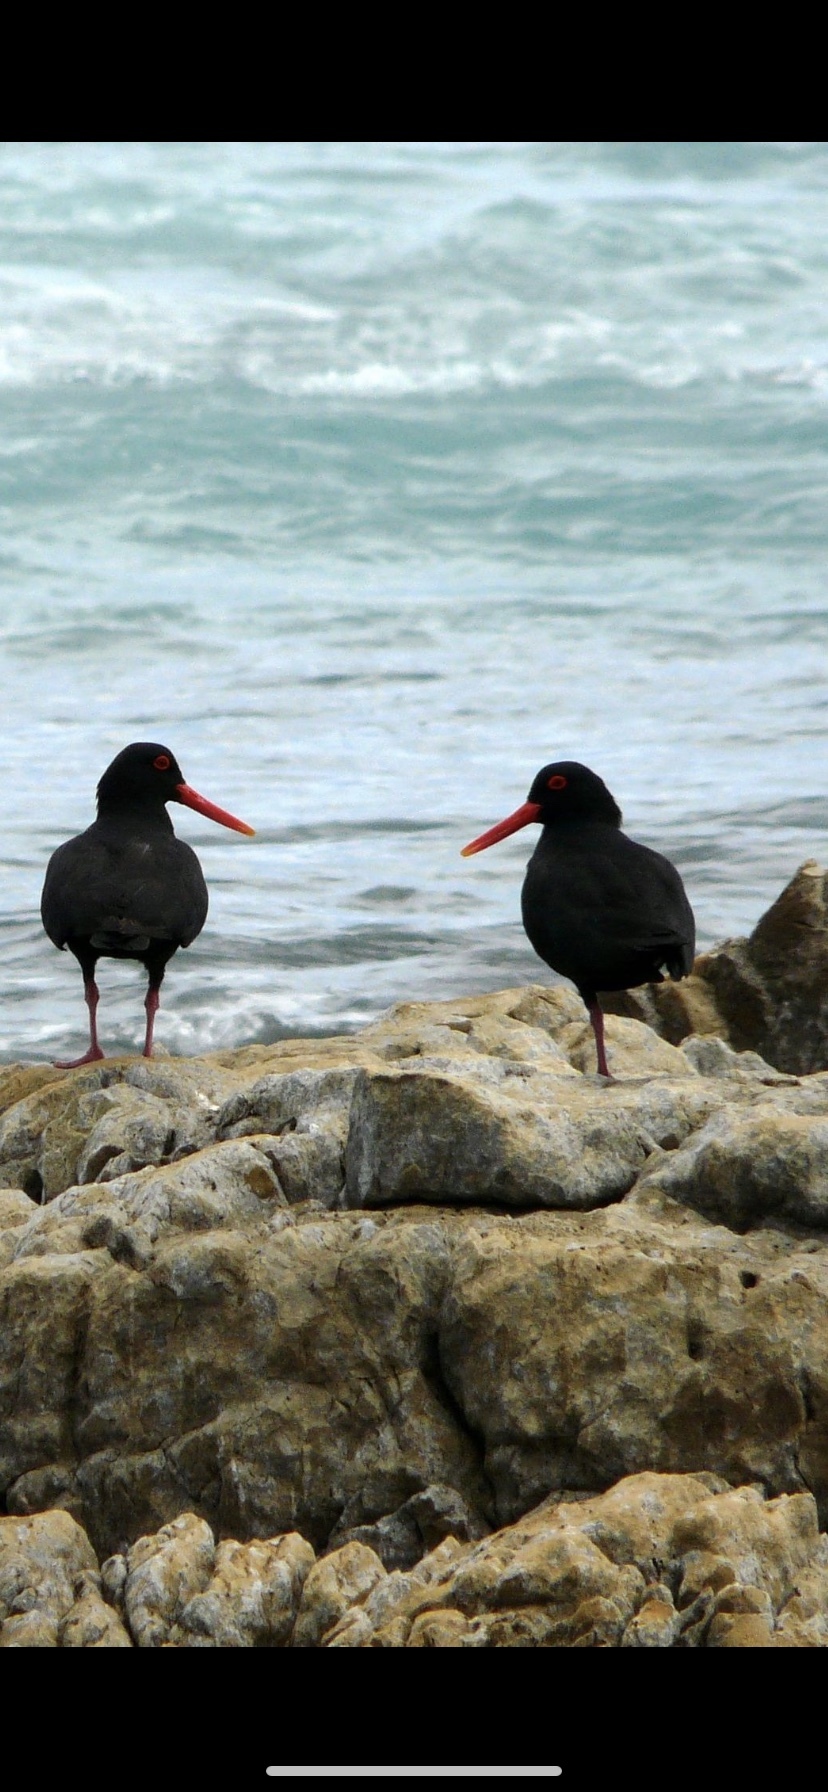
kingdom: Animalia
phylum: Chordata
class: Aves
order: Charadriiformes
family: Haematopodidae
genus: Haematopus
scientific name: Haematopus moquini
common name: African oystercatcher
